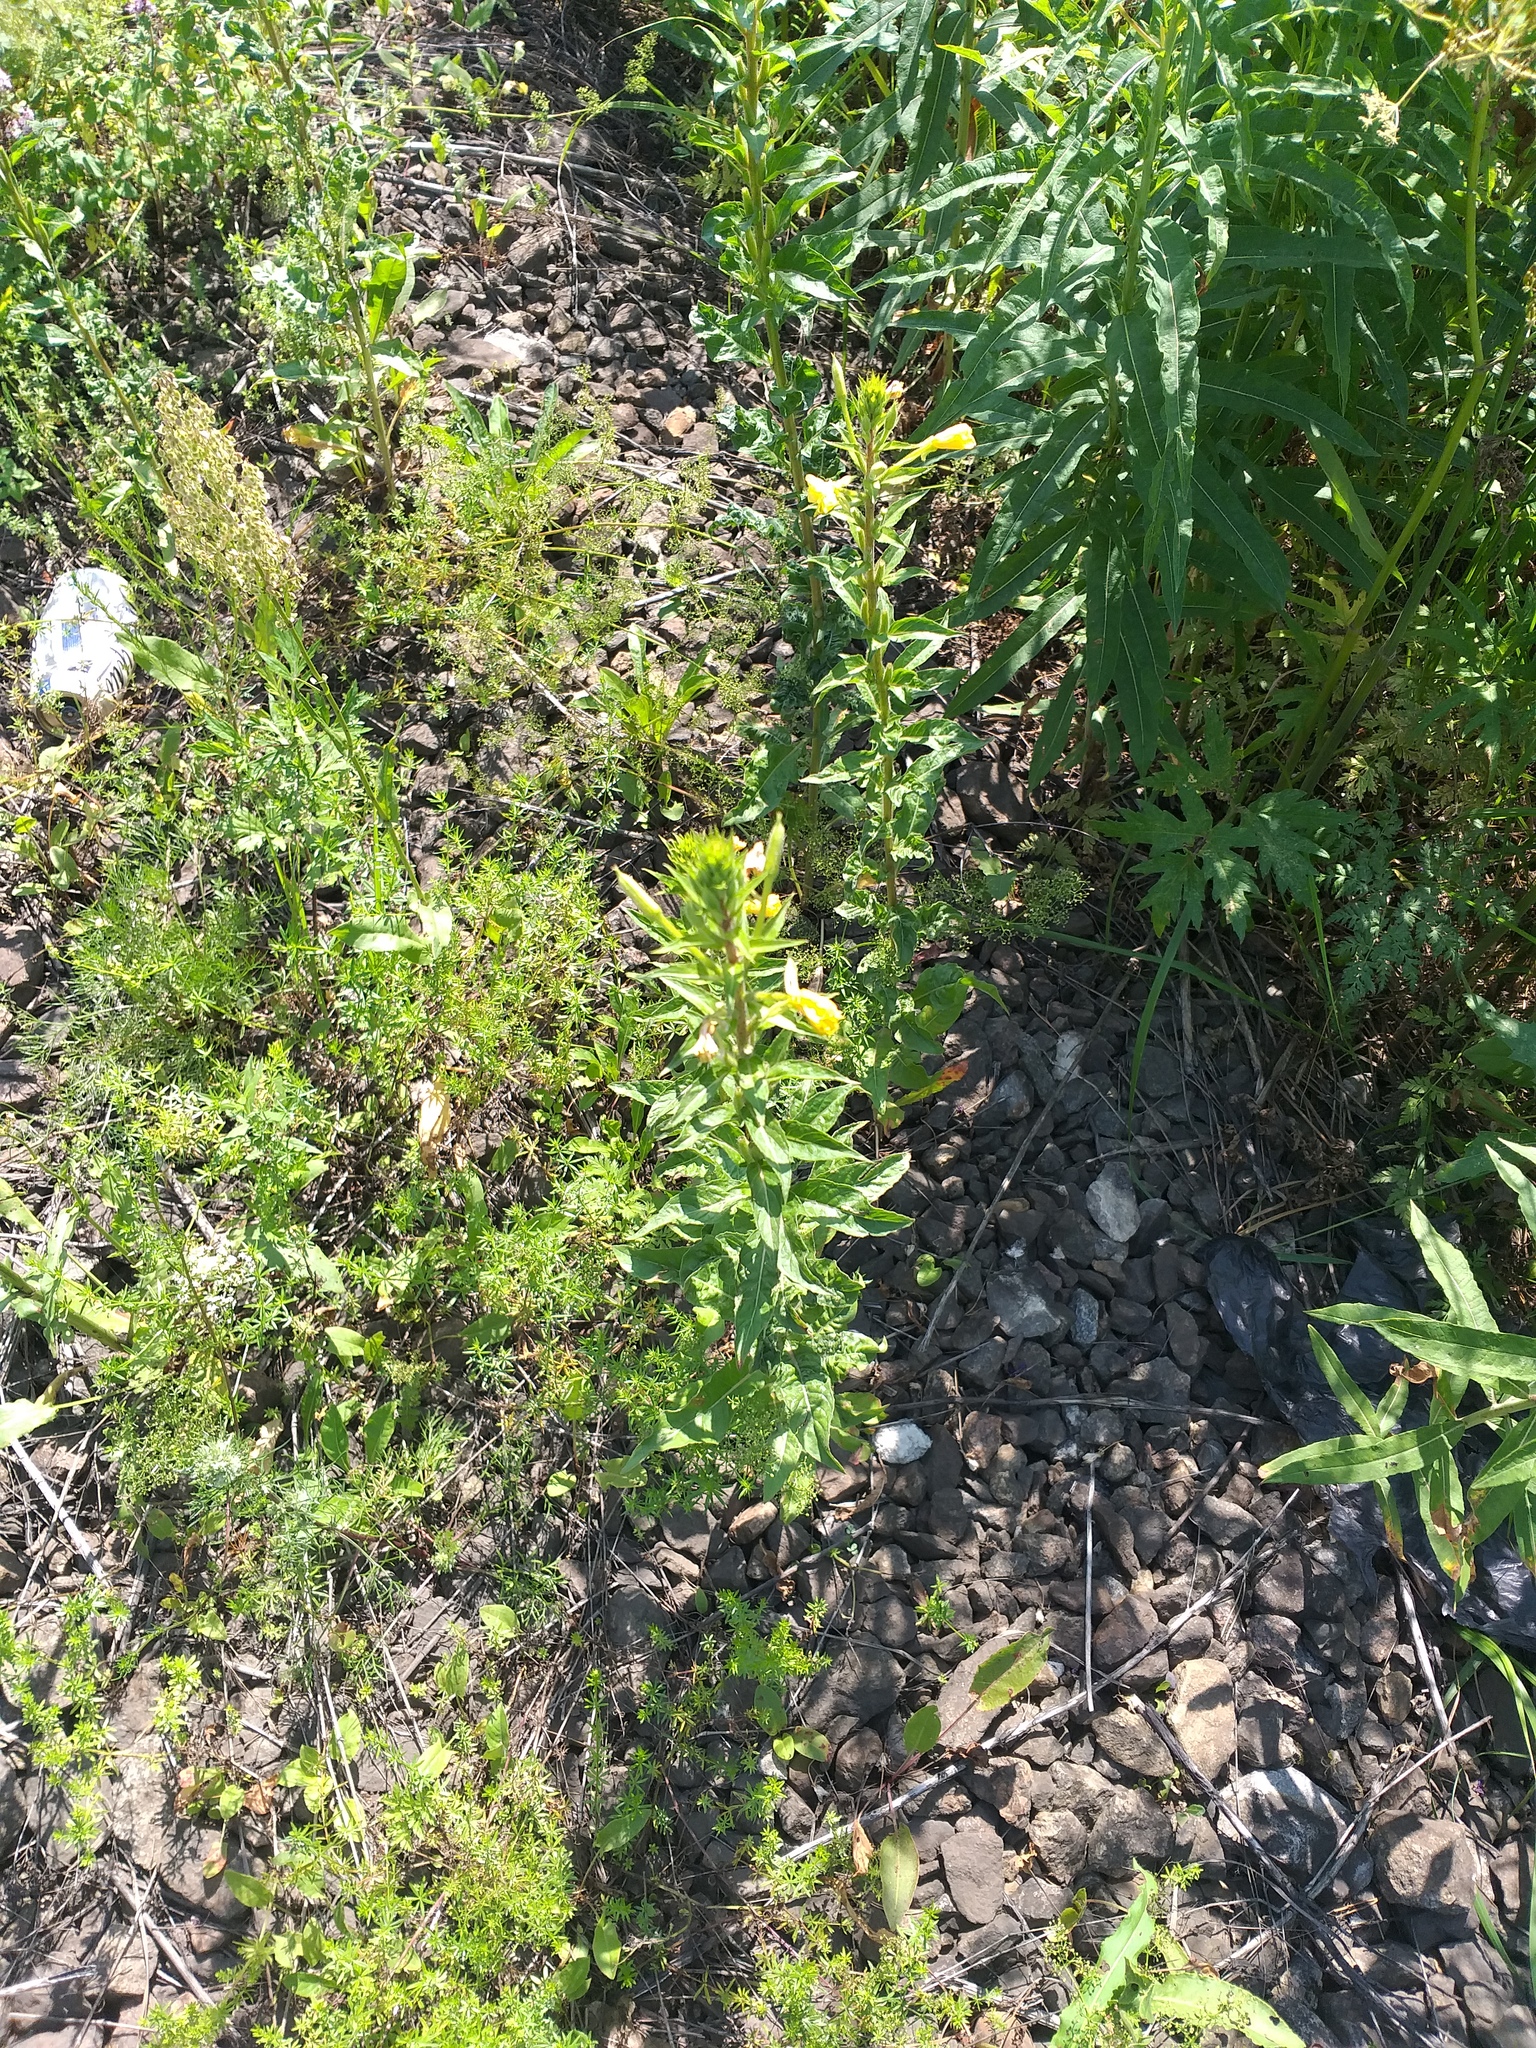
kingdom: Plantae
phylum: Tracheophyta
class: Magnoliopsida
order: Myrtales
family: Onagraceae
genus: Oenothera
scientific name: Oenothera rubricaulis
